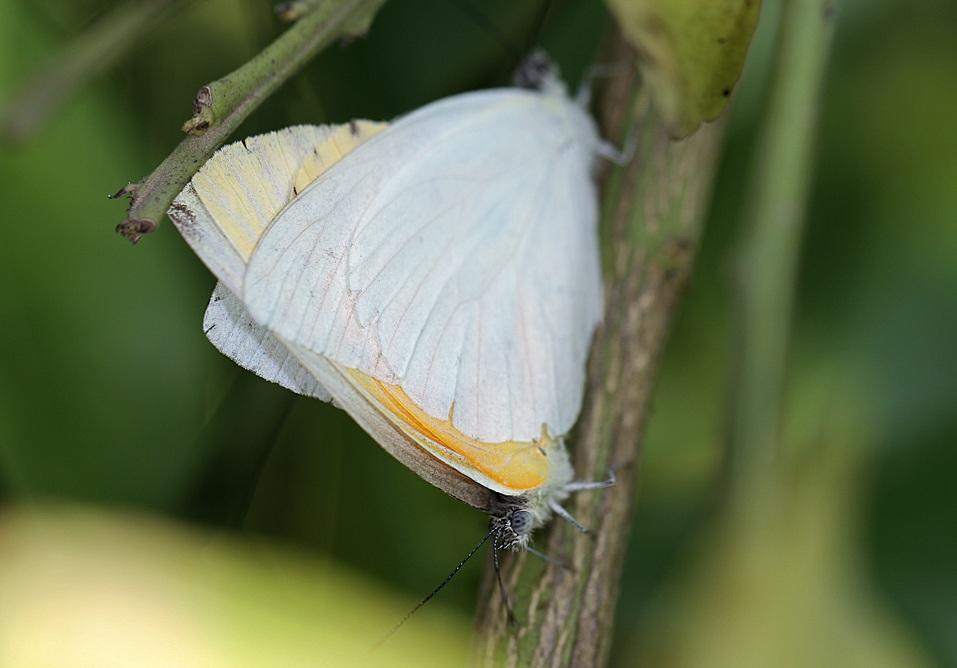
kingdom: Animalia
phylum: Arthropoda
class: Insecta
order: Lepidoptera
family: Pieridae
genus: Dixeia
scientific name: Dixeia pigea
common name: Ant-heap small white
